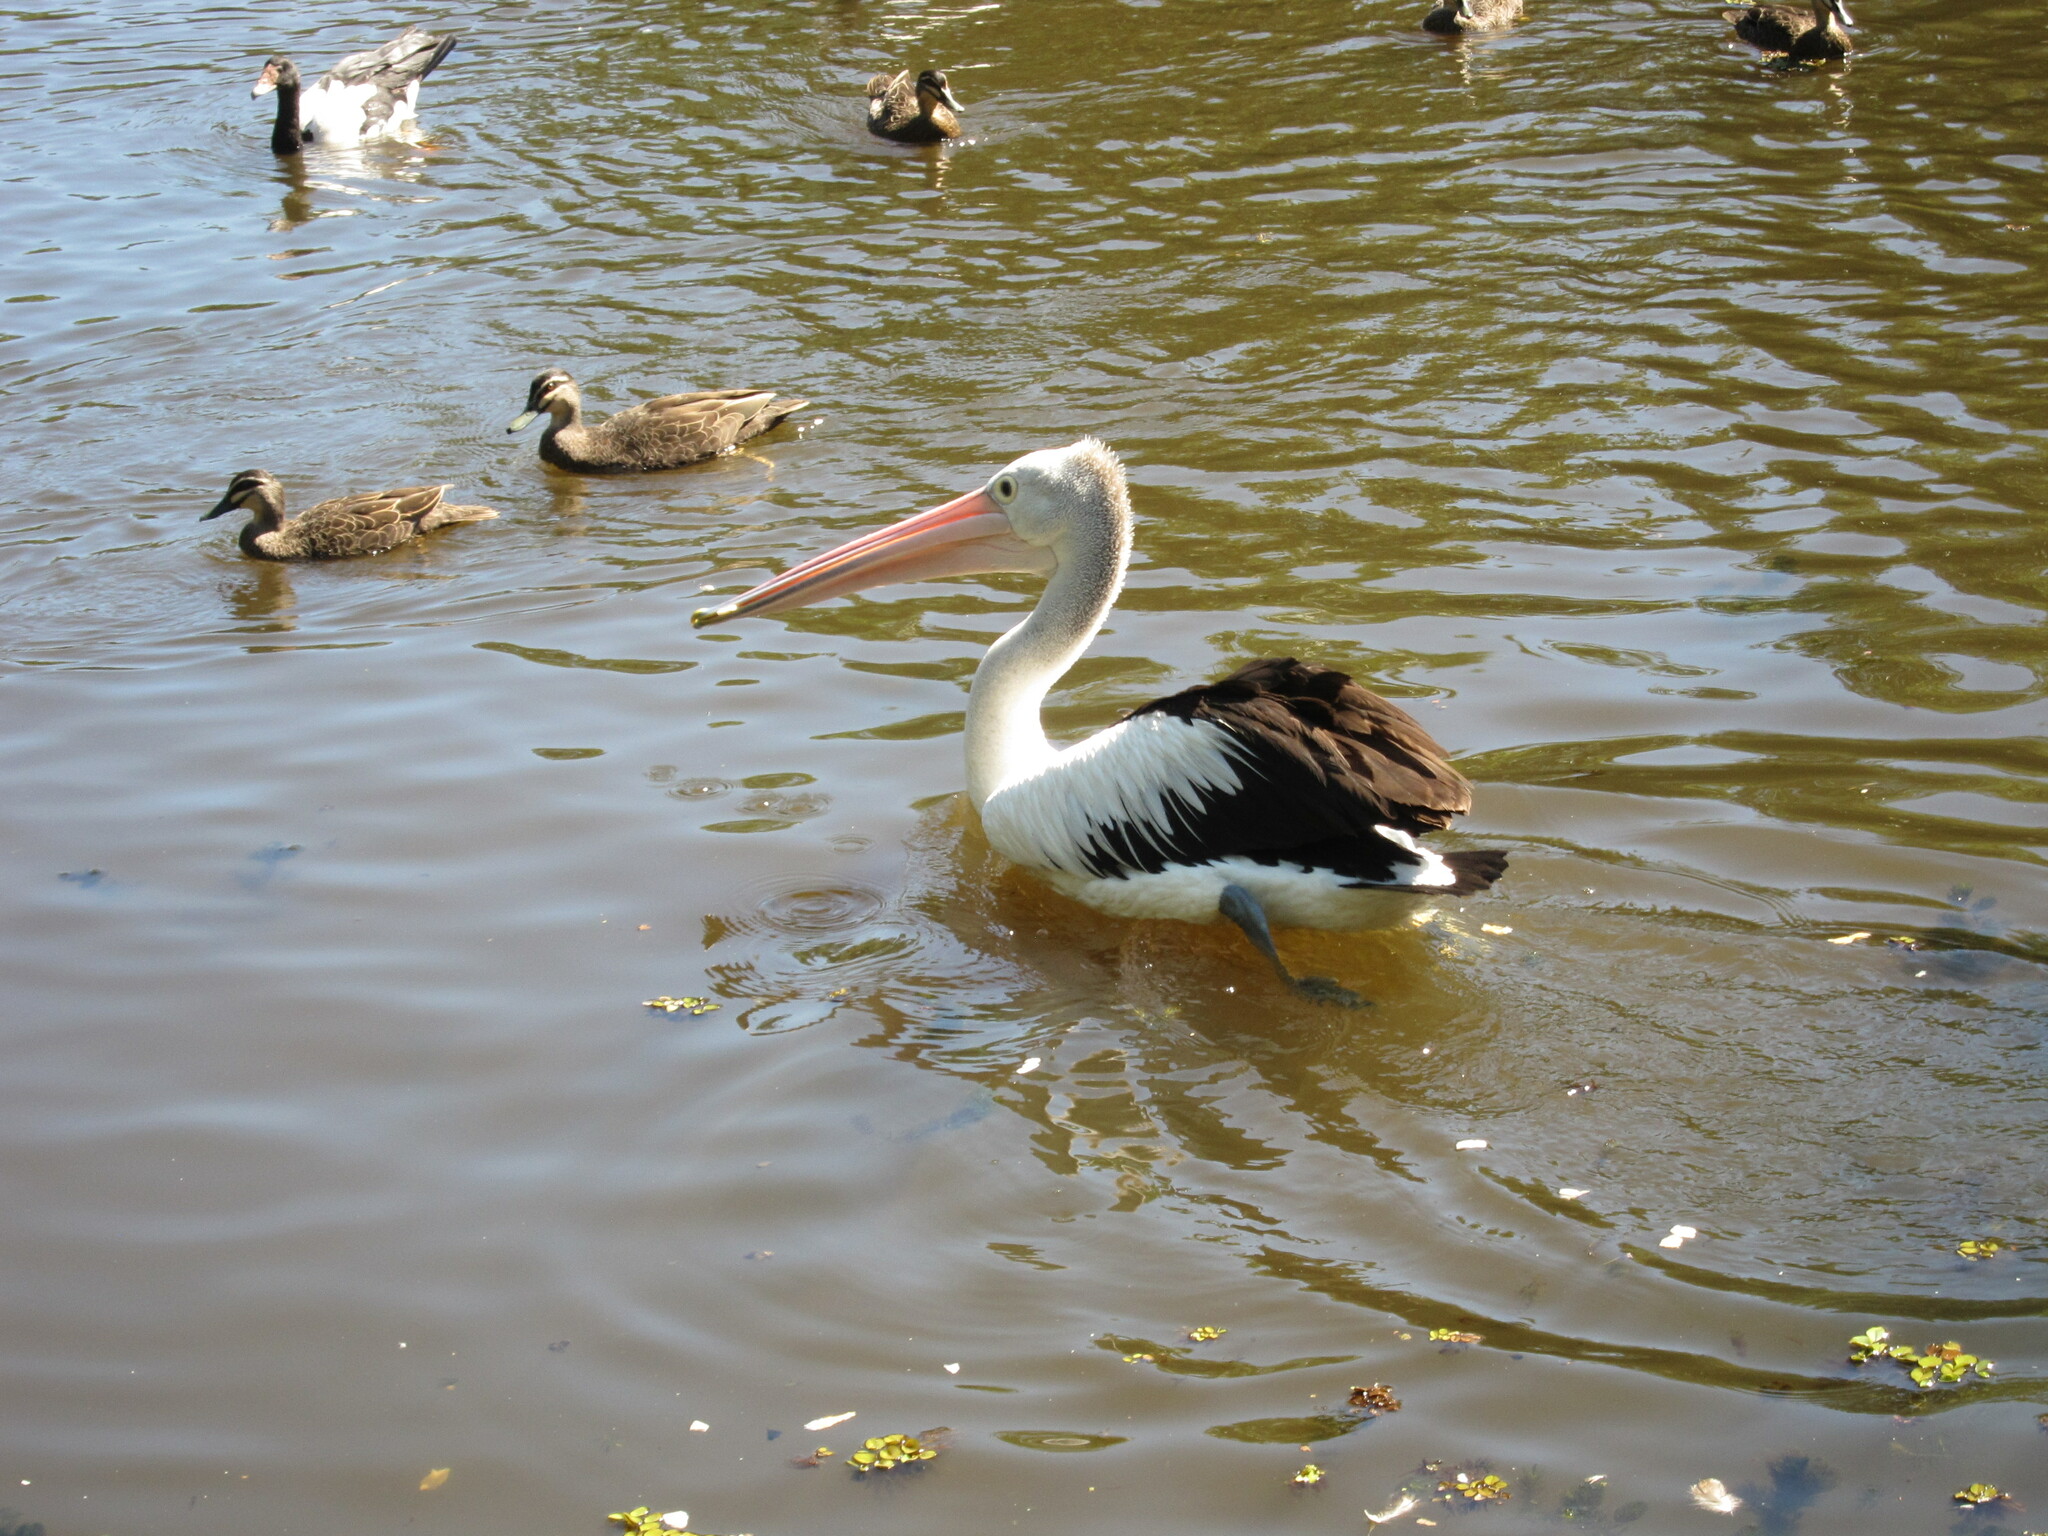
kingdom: Animalia
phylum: Chordata
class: Aves
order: Pelecaniformes
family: Pelecanidae
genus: Pelecanus
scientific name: Pelecanus conspicillatus
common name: Australian pelican
